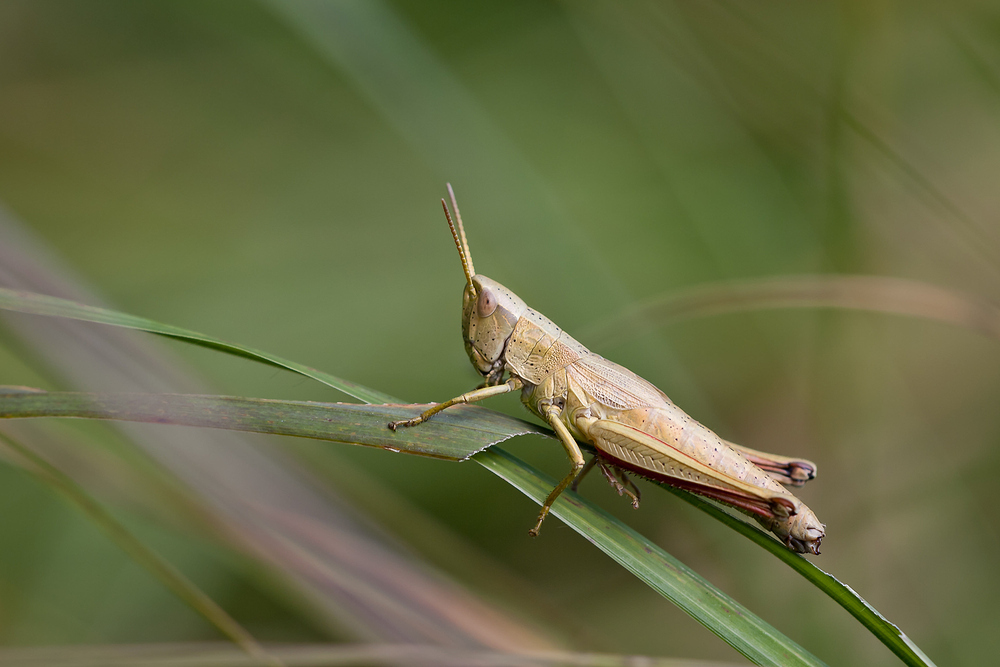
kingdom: Animalia
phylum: Arthropoda
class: Insecta
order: Orthoptera
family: Acrididae
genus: Chrysochraon
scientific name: Chrysochraon dispar
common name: Large gold grasshopper
